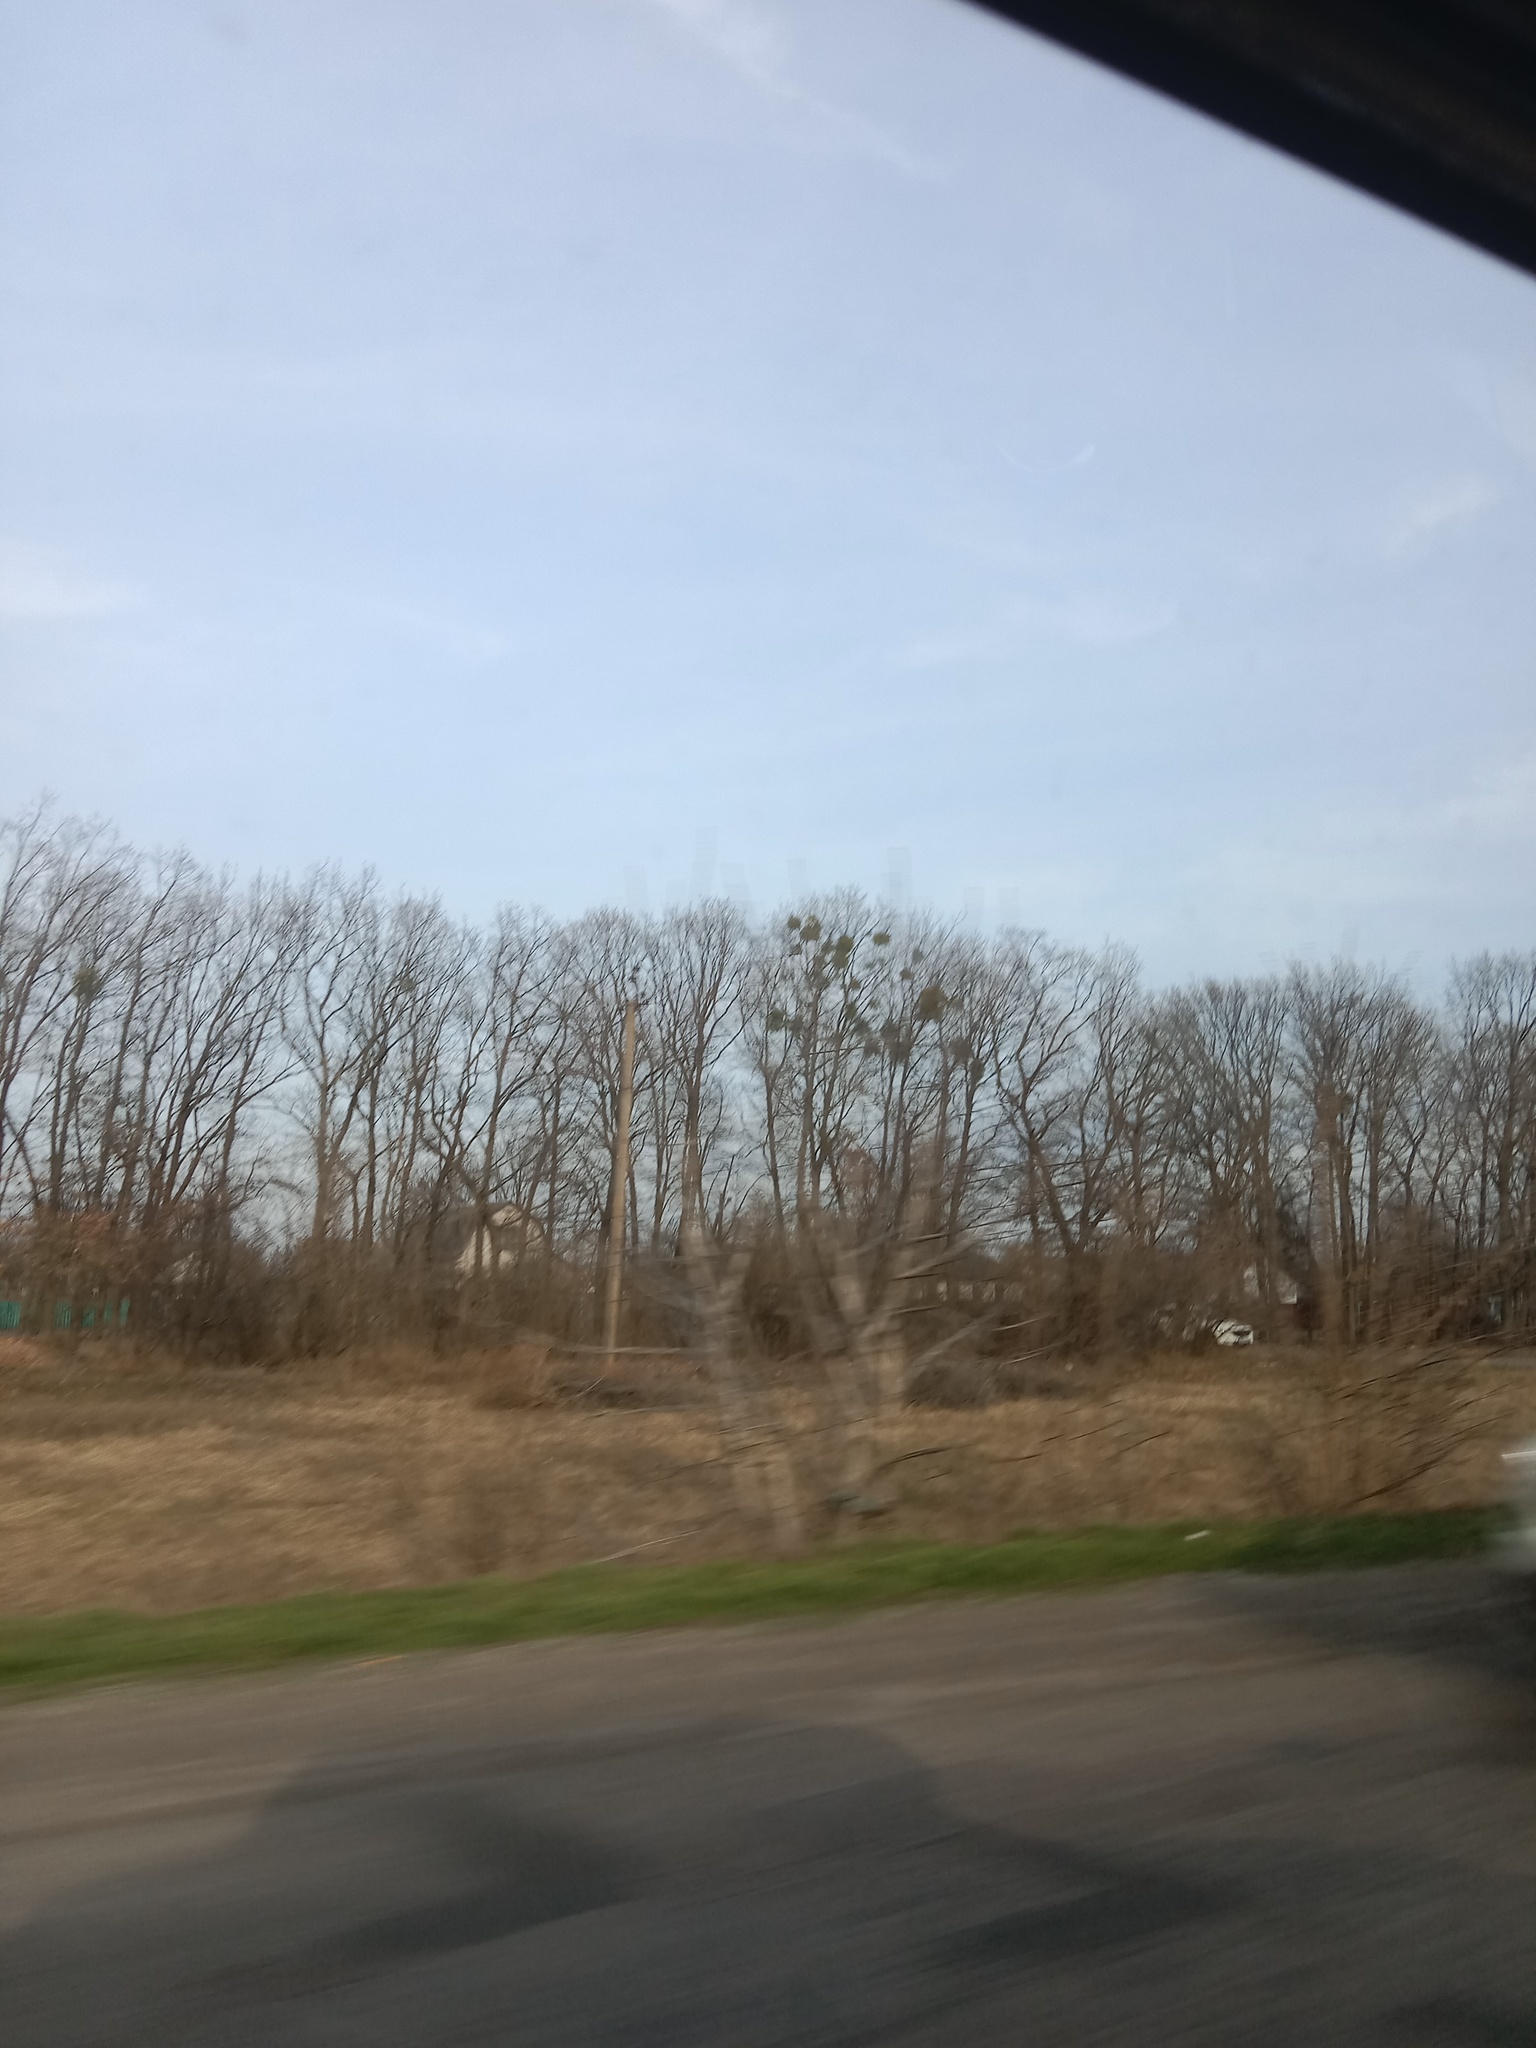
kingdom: Plantae
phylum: Tracheophyta
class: Magnoliopsida
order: Santalales
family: Viscaceae
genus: Viscum
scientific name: Viscum album
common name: Mistletoe
